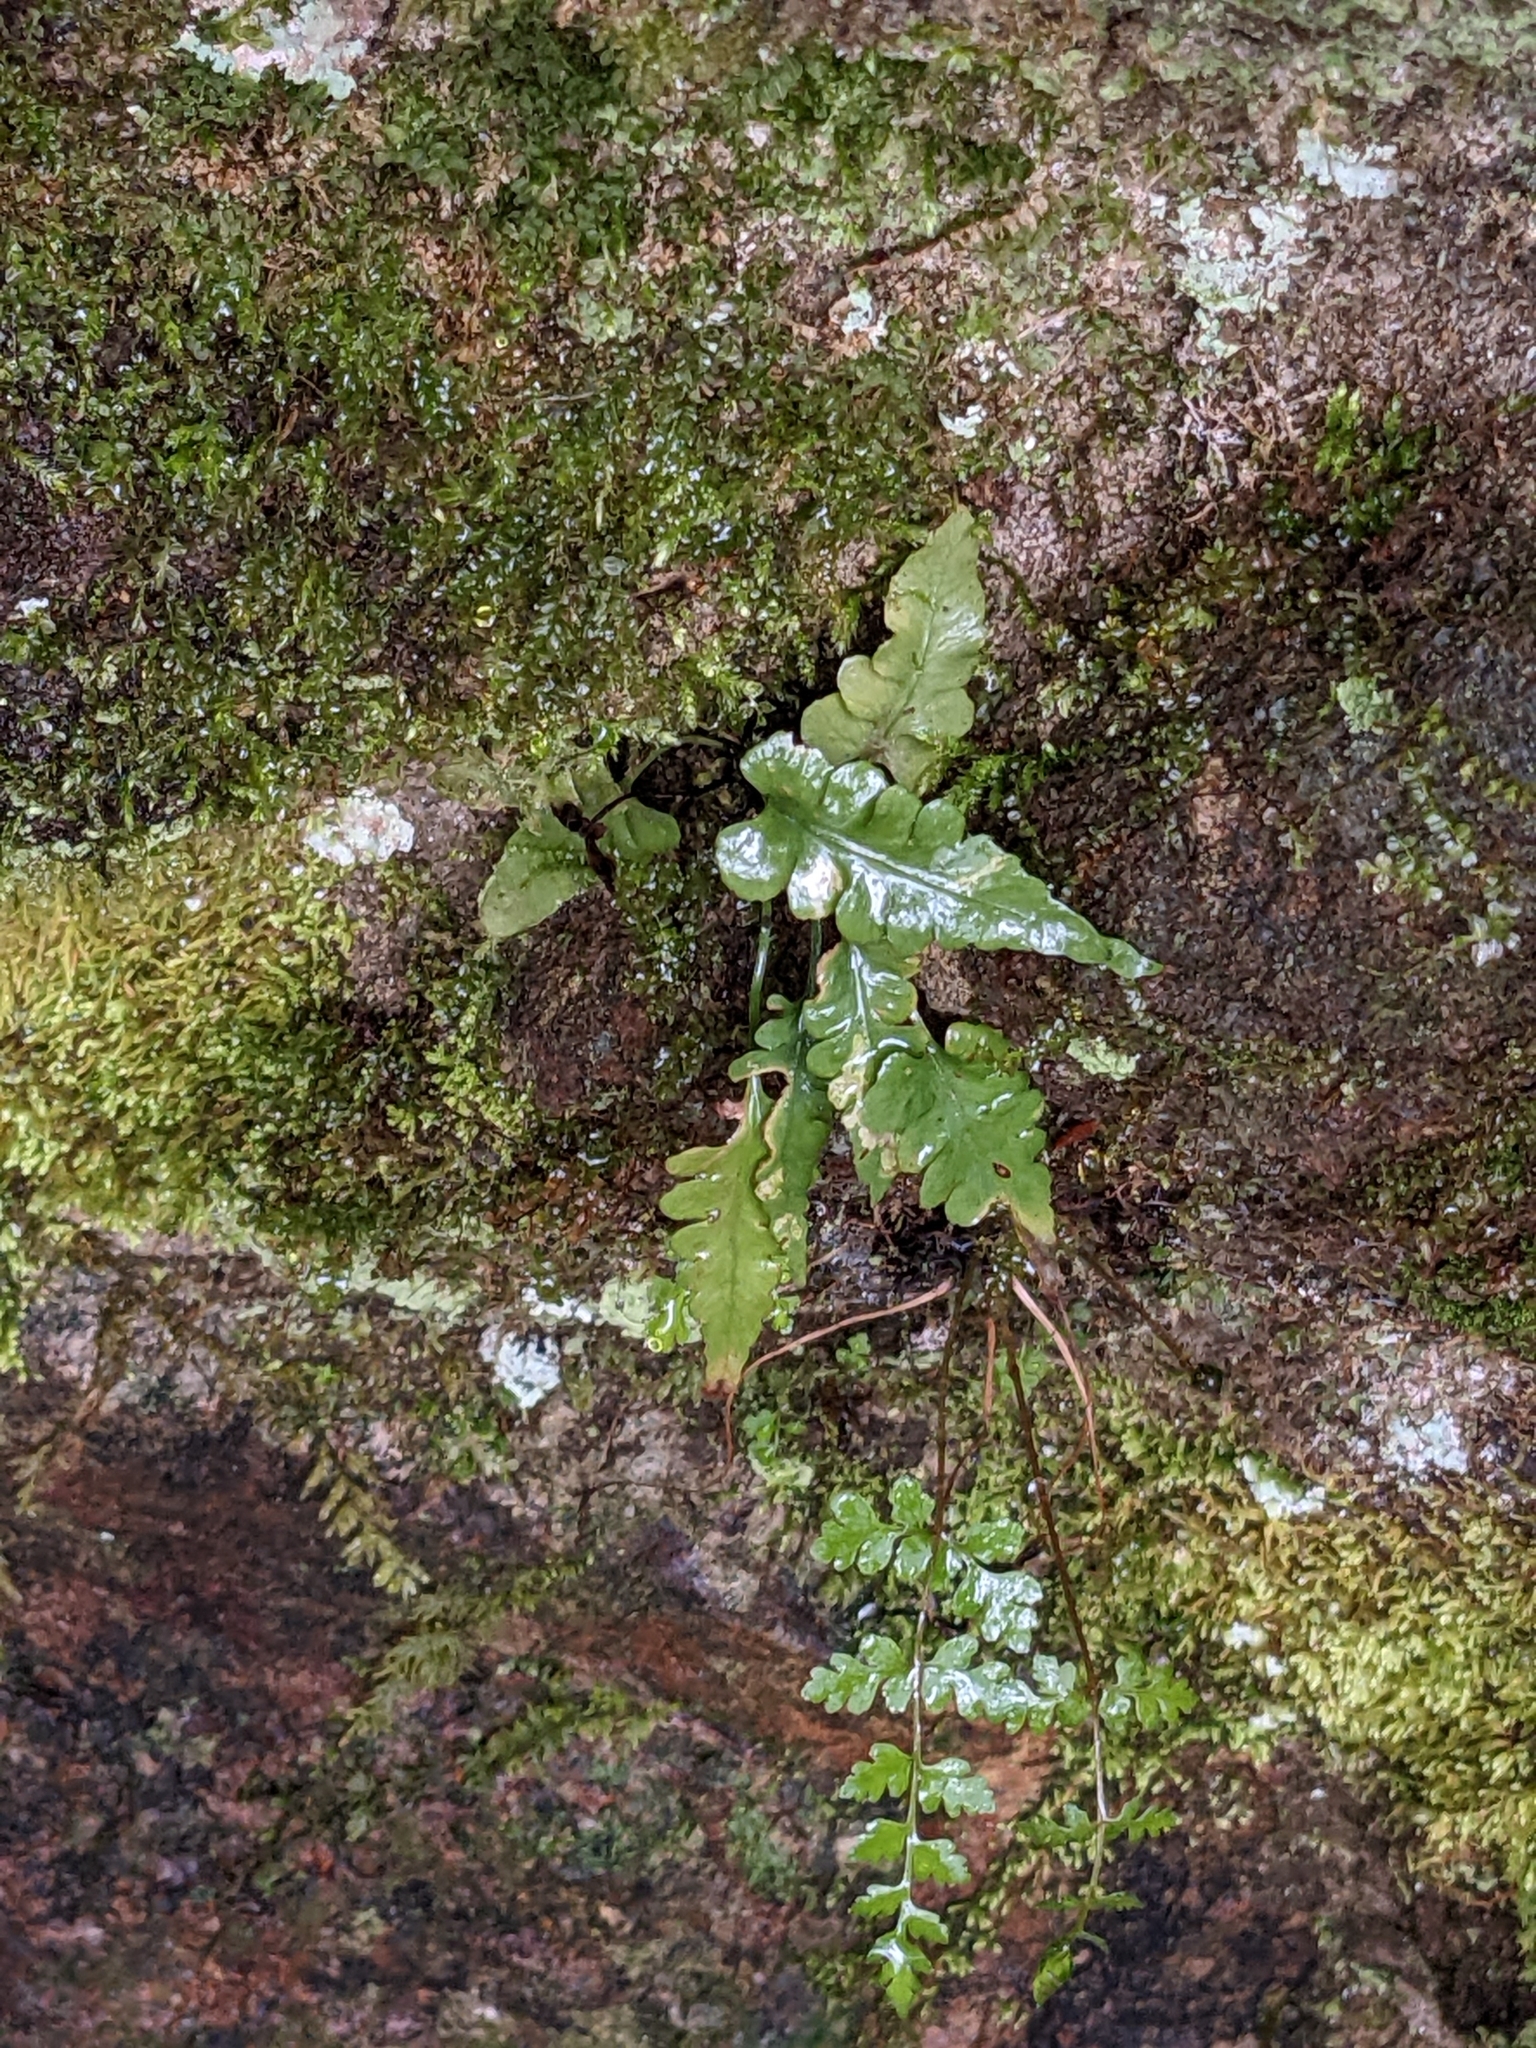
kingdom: Plantae
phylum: Tracheophyta
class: Polypodiopsida
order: Polypodiales
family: Aspleniaceae
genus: Asplenium
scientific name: Asplenium pinnatifidum
